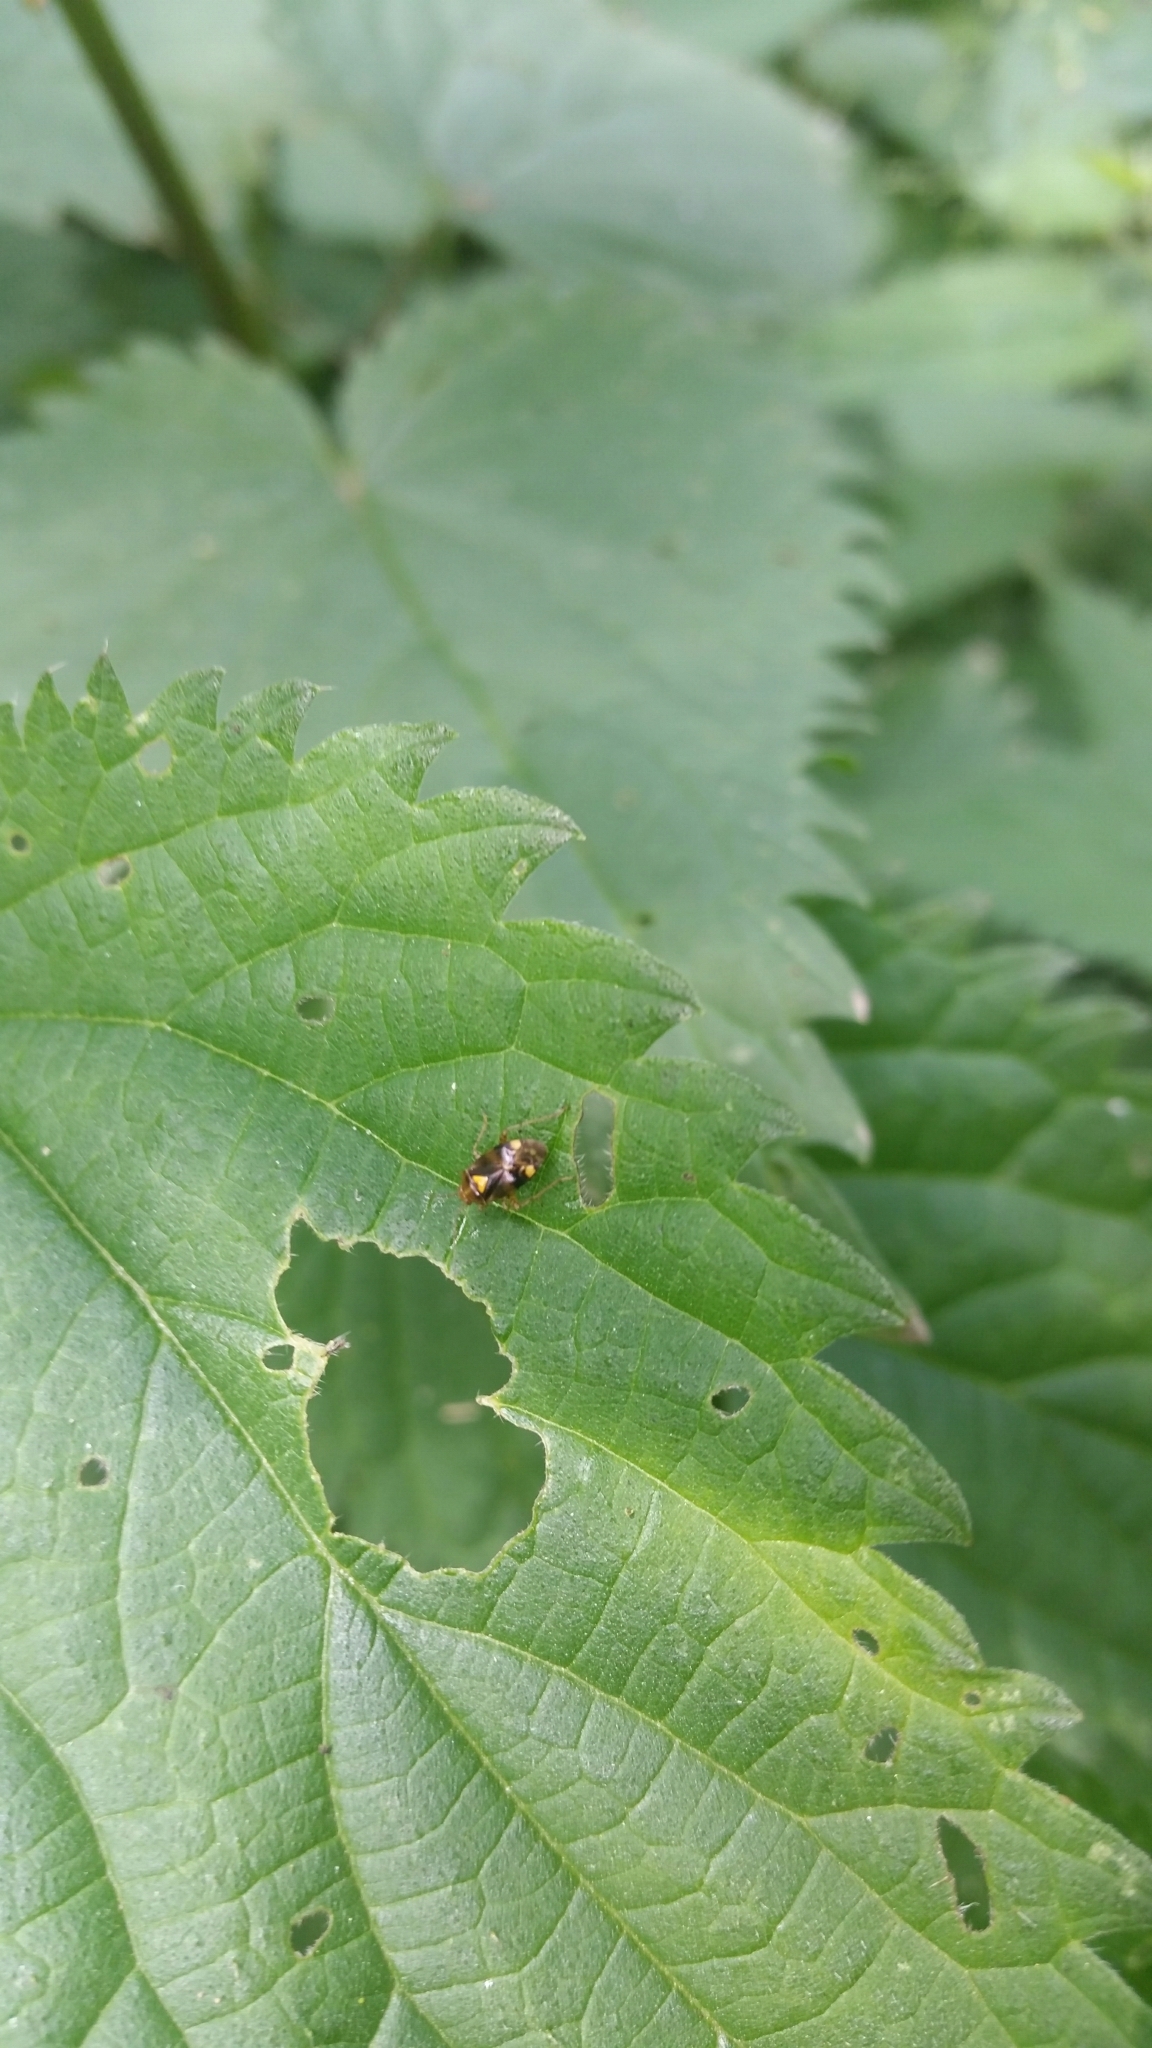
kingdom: Animalia
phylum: Arthropoda
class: Insecta
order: Hemiptera
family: Miridae
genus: Liocoris
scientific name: Liocoris tripustulatus
